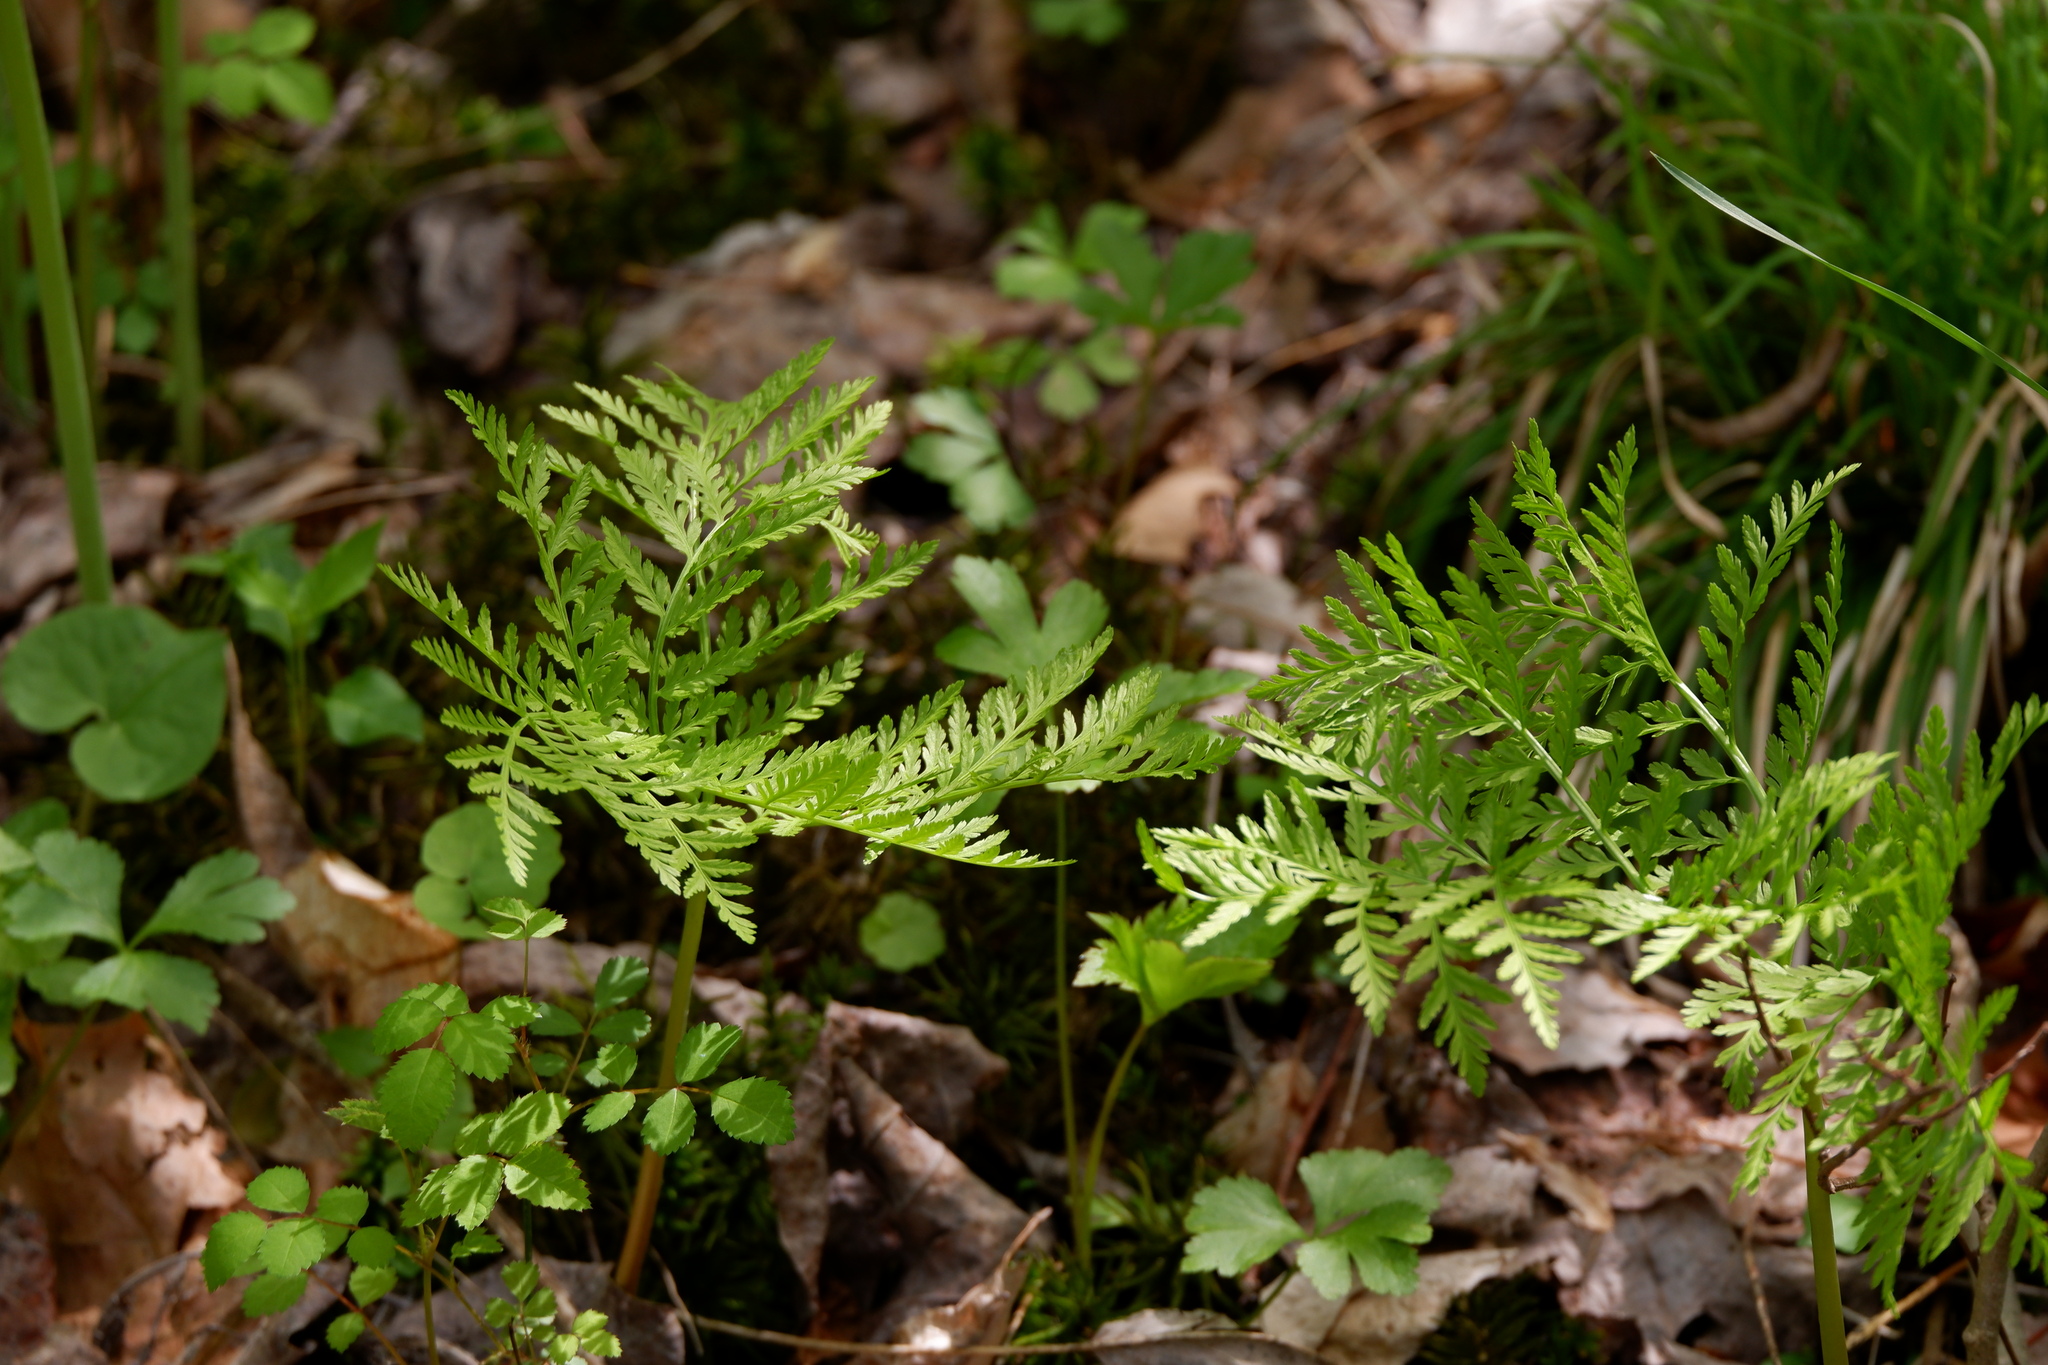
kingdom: Plantae
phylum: Tracheophyta
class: Polypodiopsida
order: Ophioglossales
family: Ophioglossaceae
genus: Botrypus
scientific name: Botrypus virginianus
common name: Common grapefern
